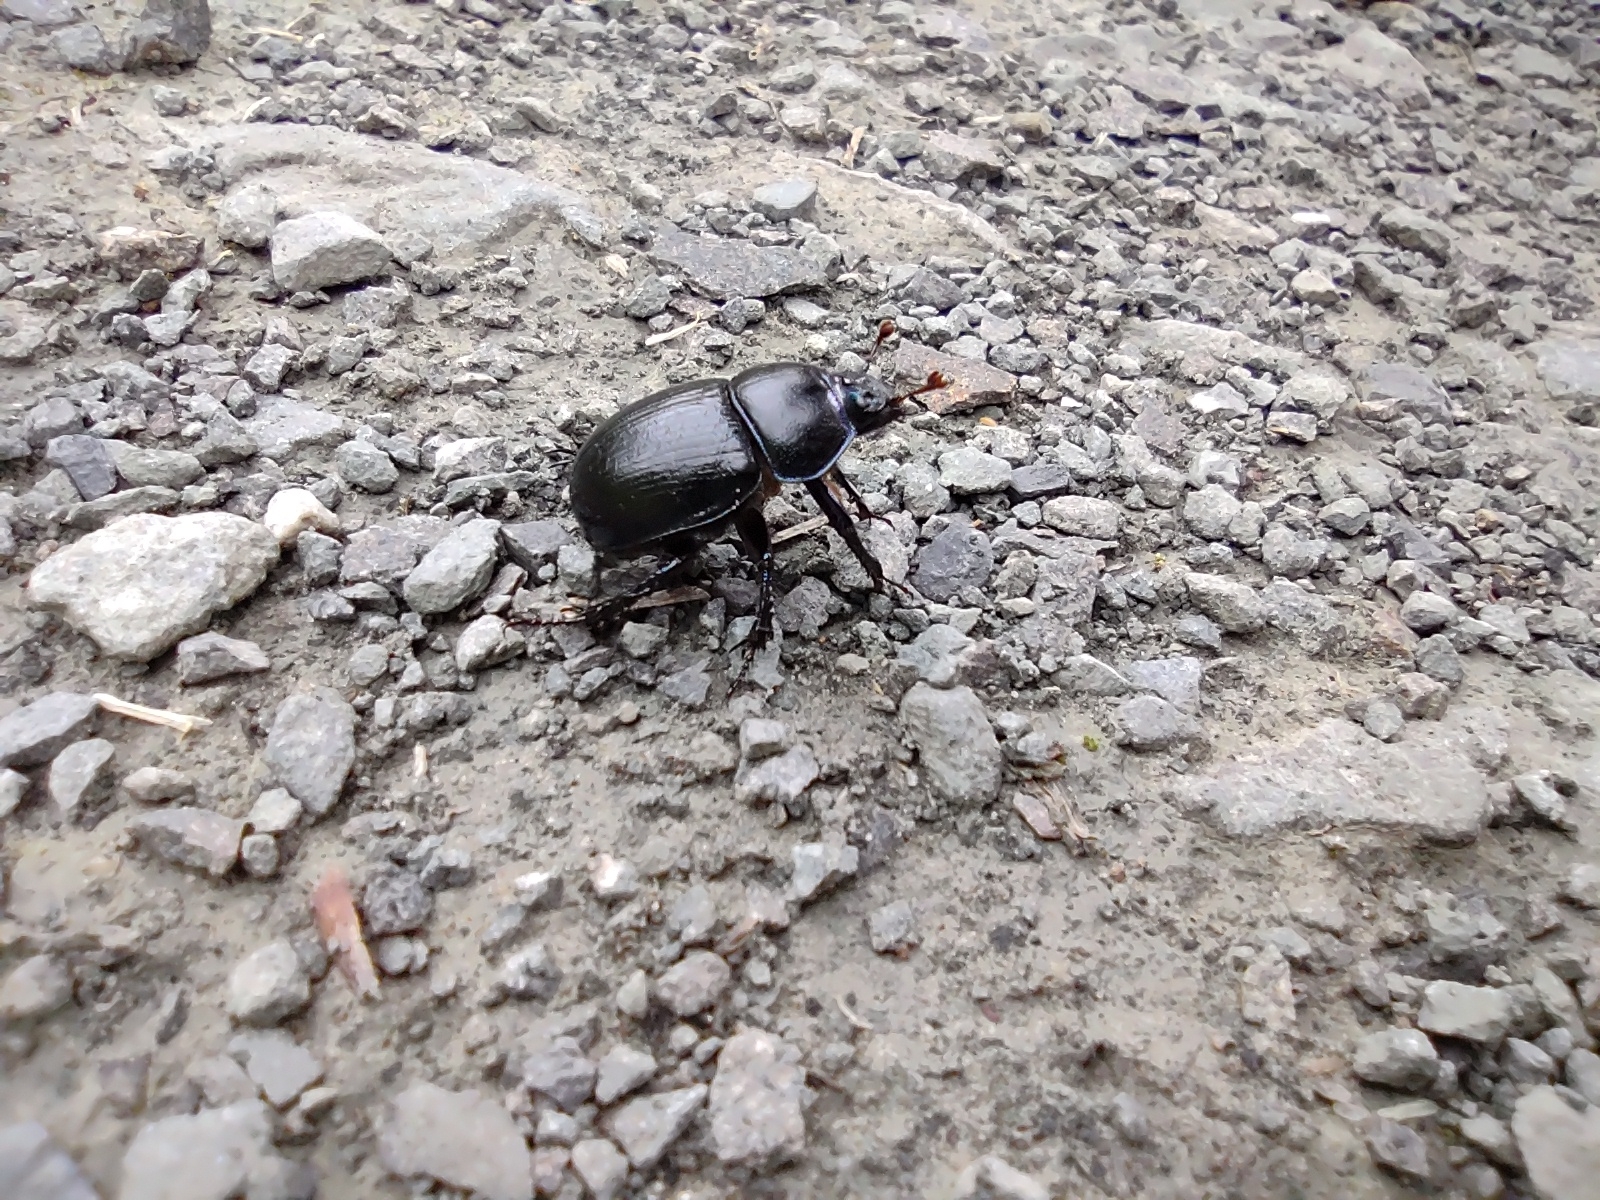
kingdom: Animalia
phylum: Arthropoda
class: Insecta
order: Coleoptera
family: Geotrupidae
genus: Anoplotrupes
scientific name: Anoplotrupes stercorosus
